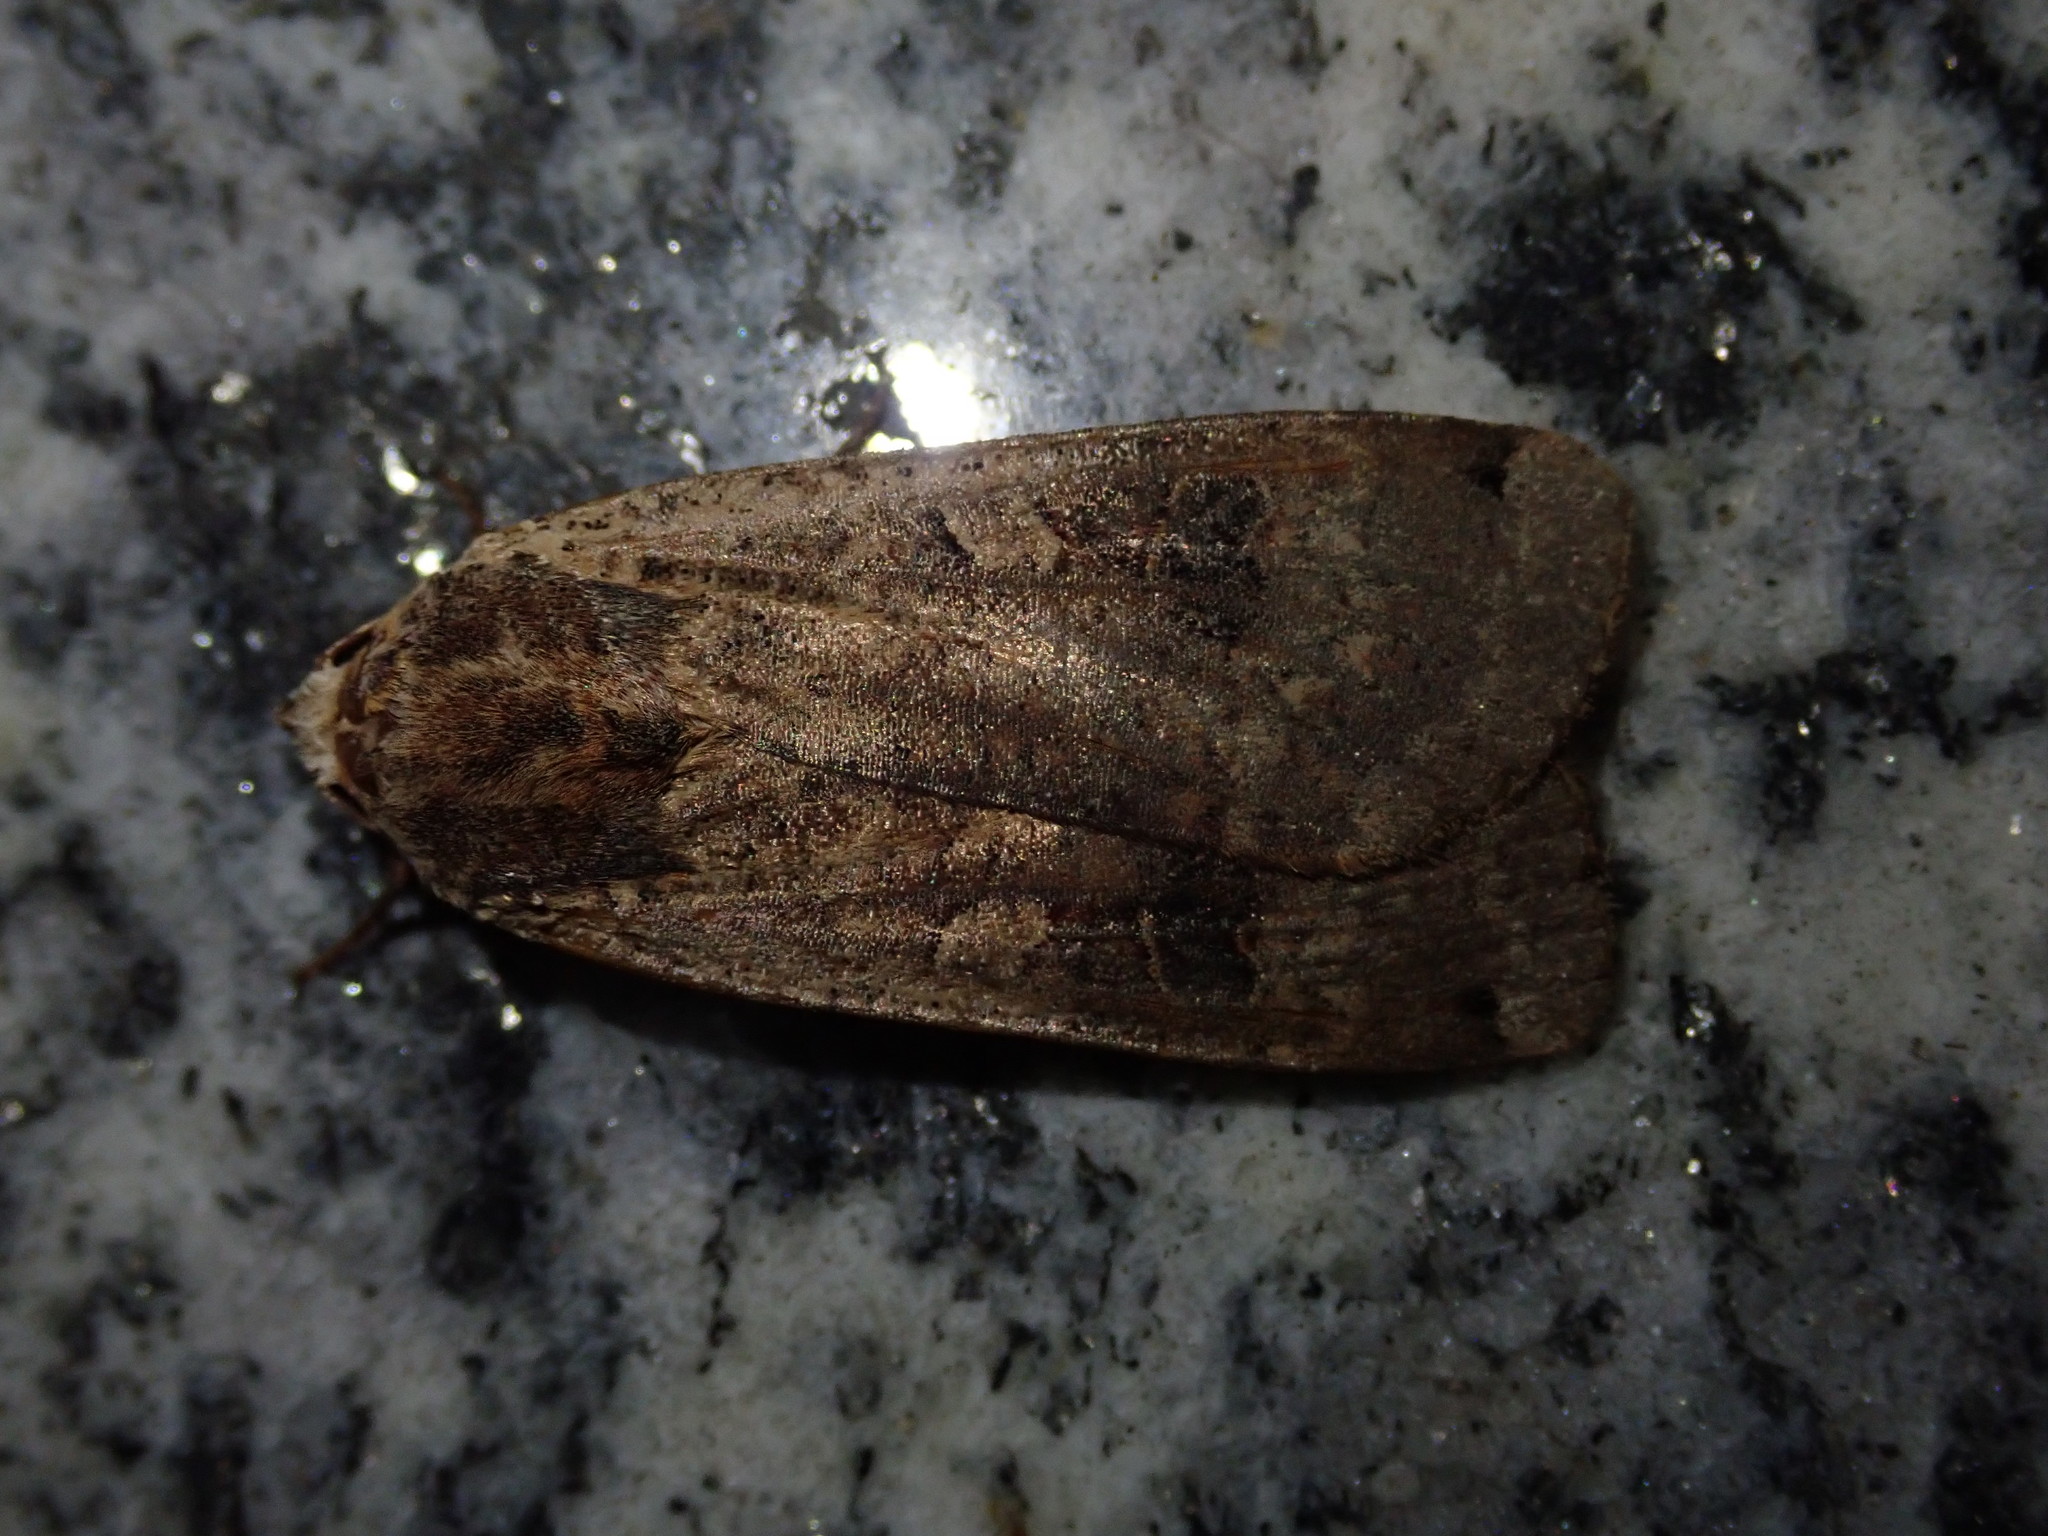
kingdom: Animalia
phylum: Arthropoda
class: Insecta
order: Lepidoptera
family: Noctuidae
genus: Noctua
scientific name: Noctua pronuba
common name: Large yellow underwing
